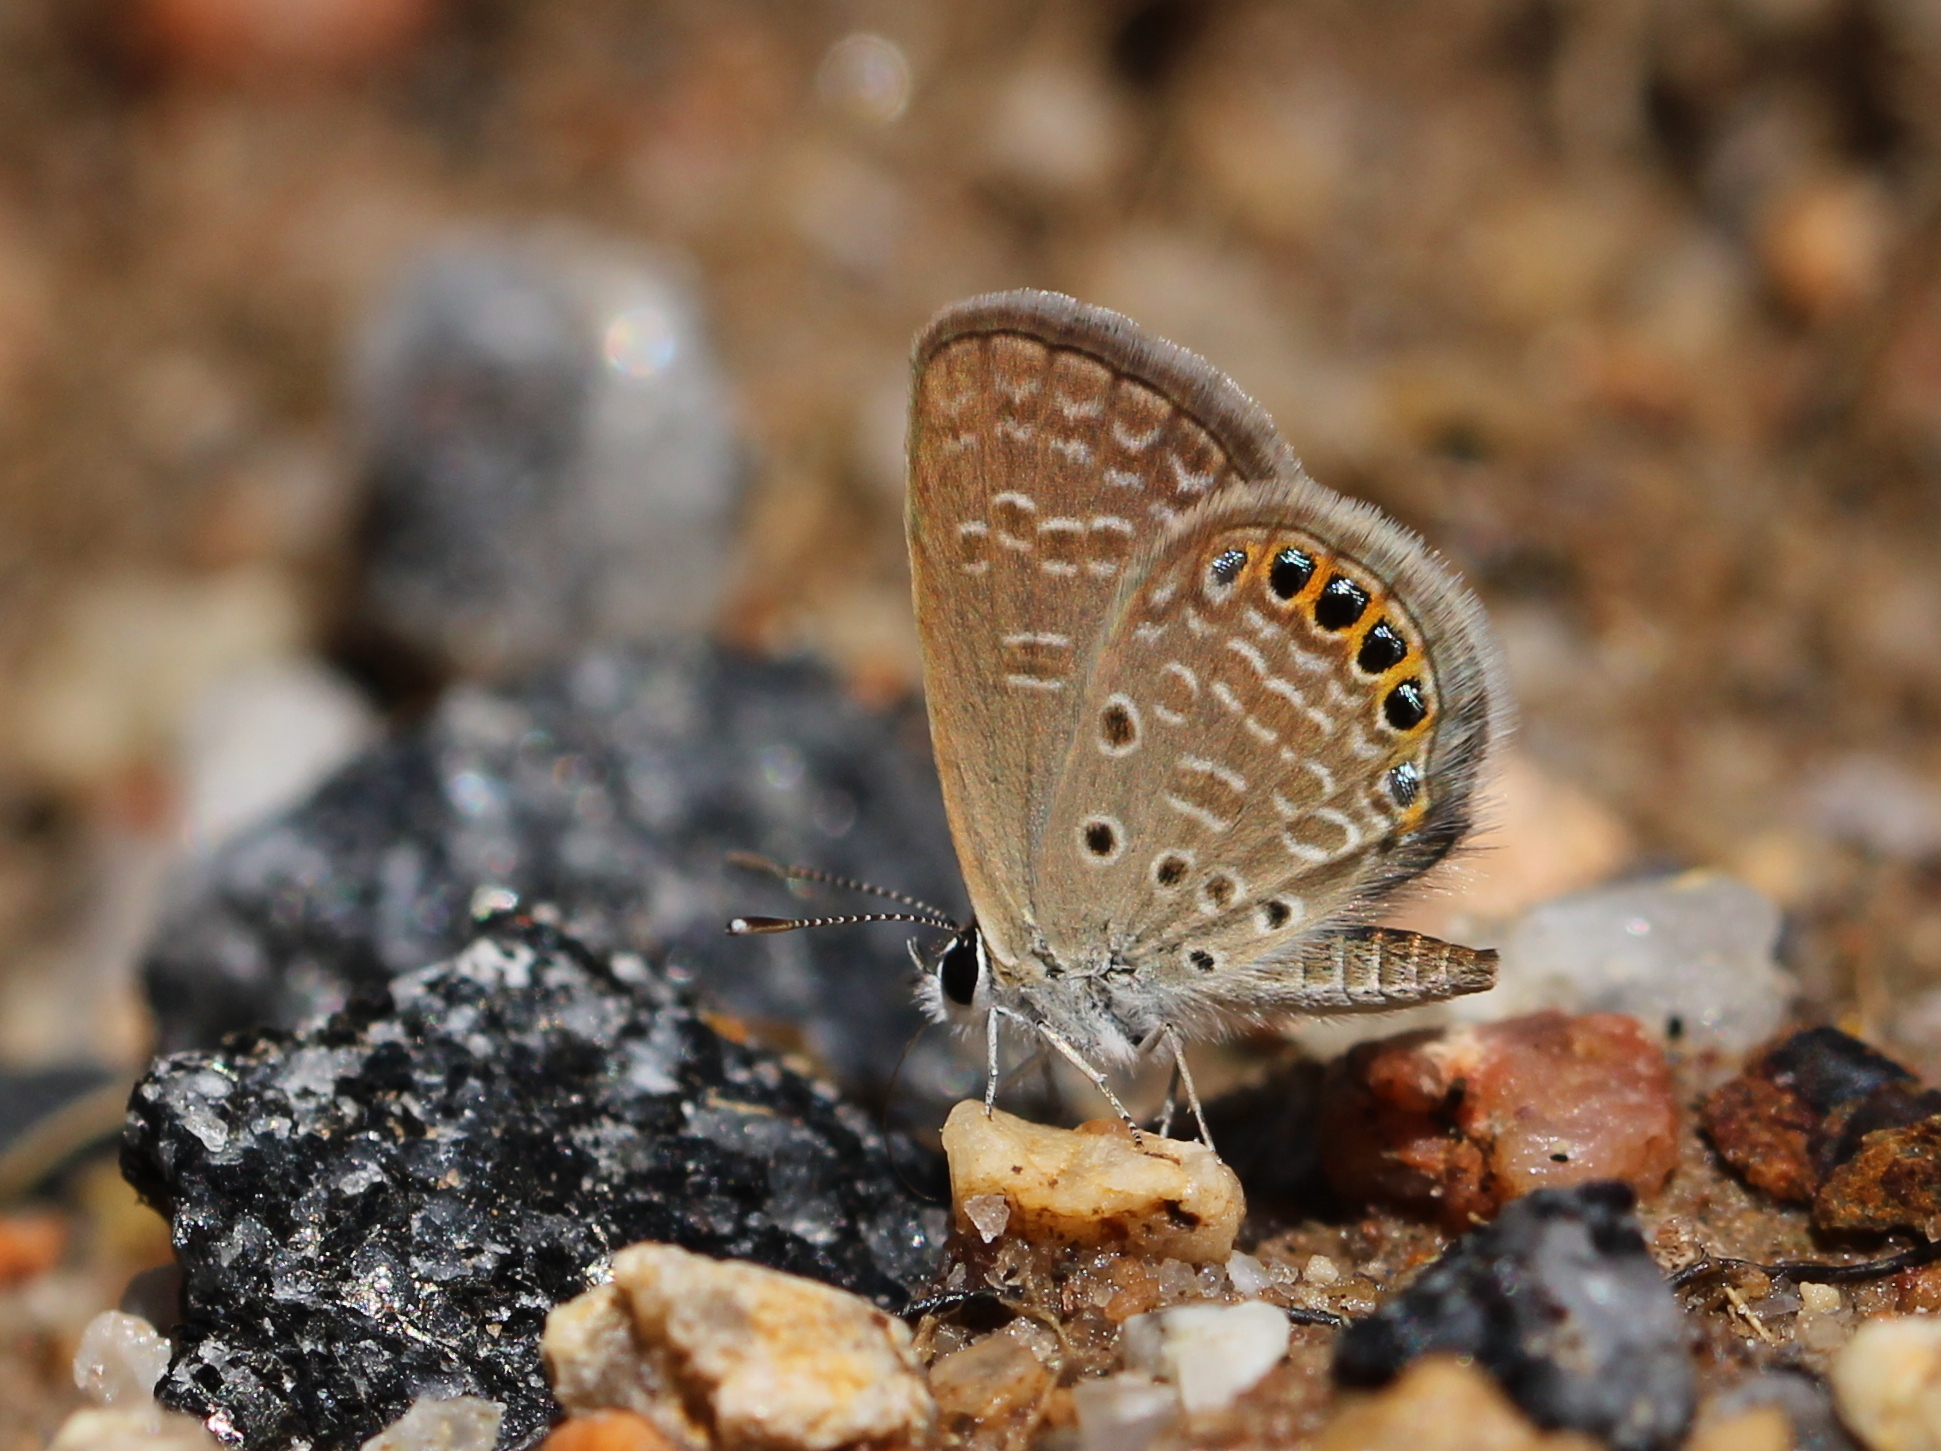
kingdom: Animalia
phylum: Arthropoda
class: Insecta
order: Lepidoptera
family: Lycaenidae
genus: Freyeria
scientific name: Freyeria putli
